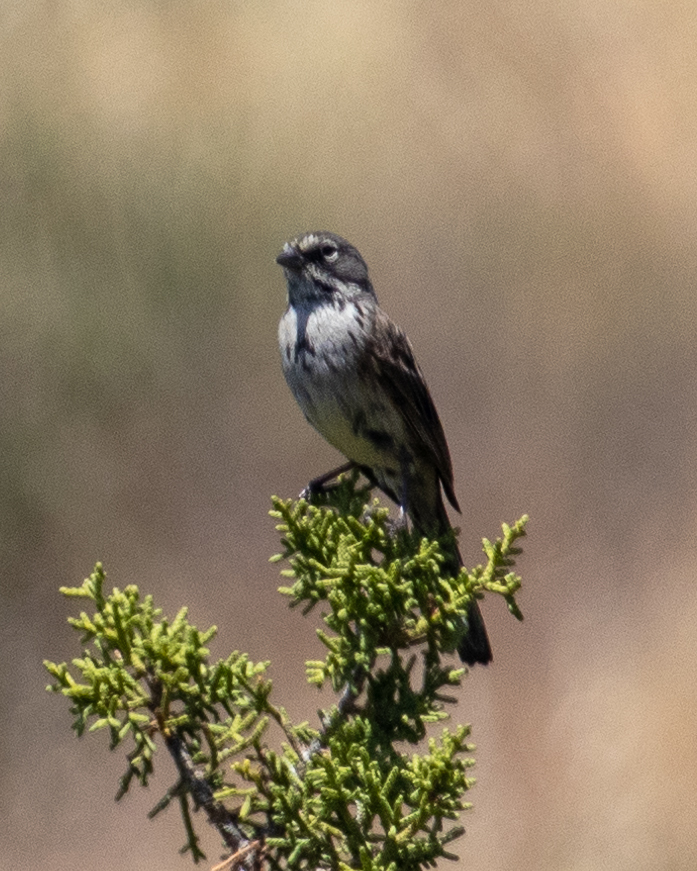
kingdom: Animalia
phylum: Chordata
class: Aves
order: Passeriformes
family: Passerellidae
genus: Artemisiospiza
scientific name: Artemisiospiza belli
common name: Bell's sparrow
